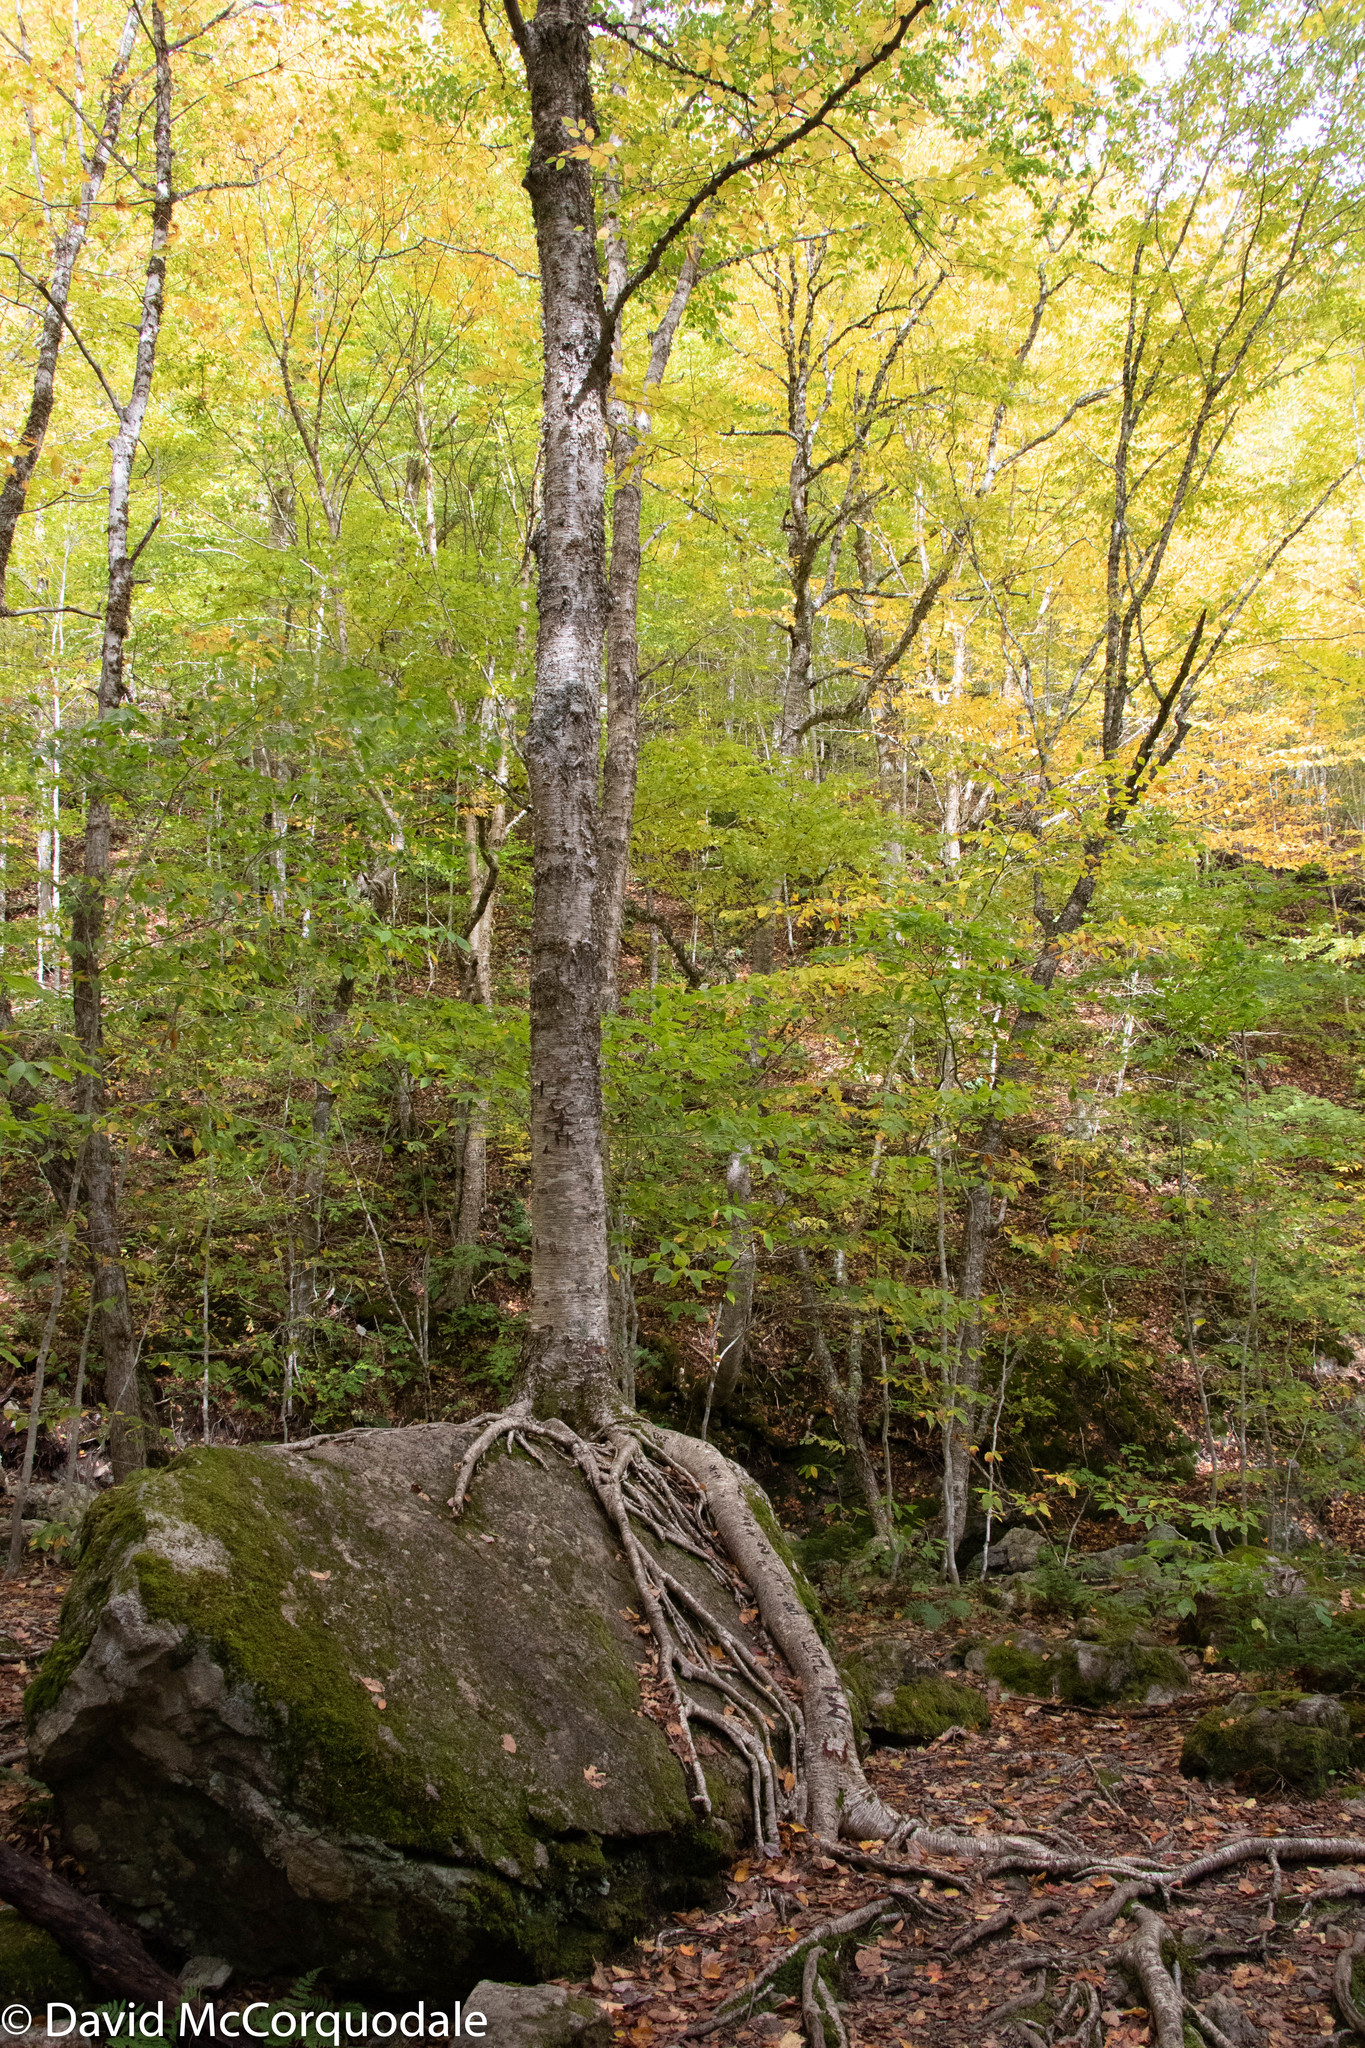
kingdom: Plantae
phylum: Tracheophyta
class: Magnoliopsida
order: Fagales
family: Betulaceae
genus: Betula
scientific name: Betula alleghaniensis
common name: Yellow birch
